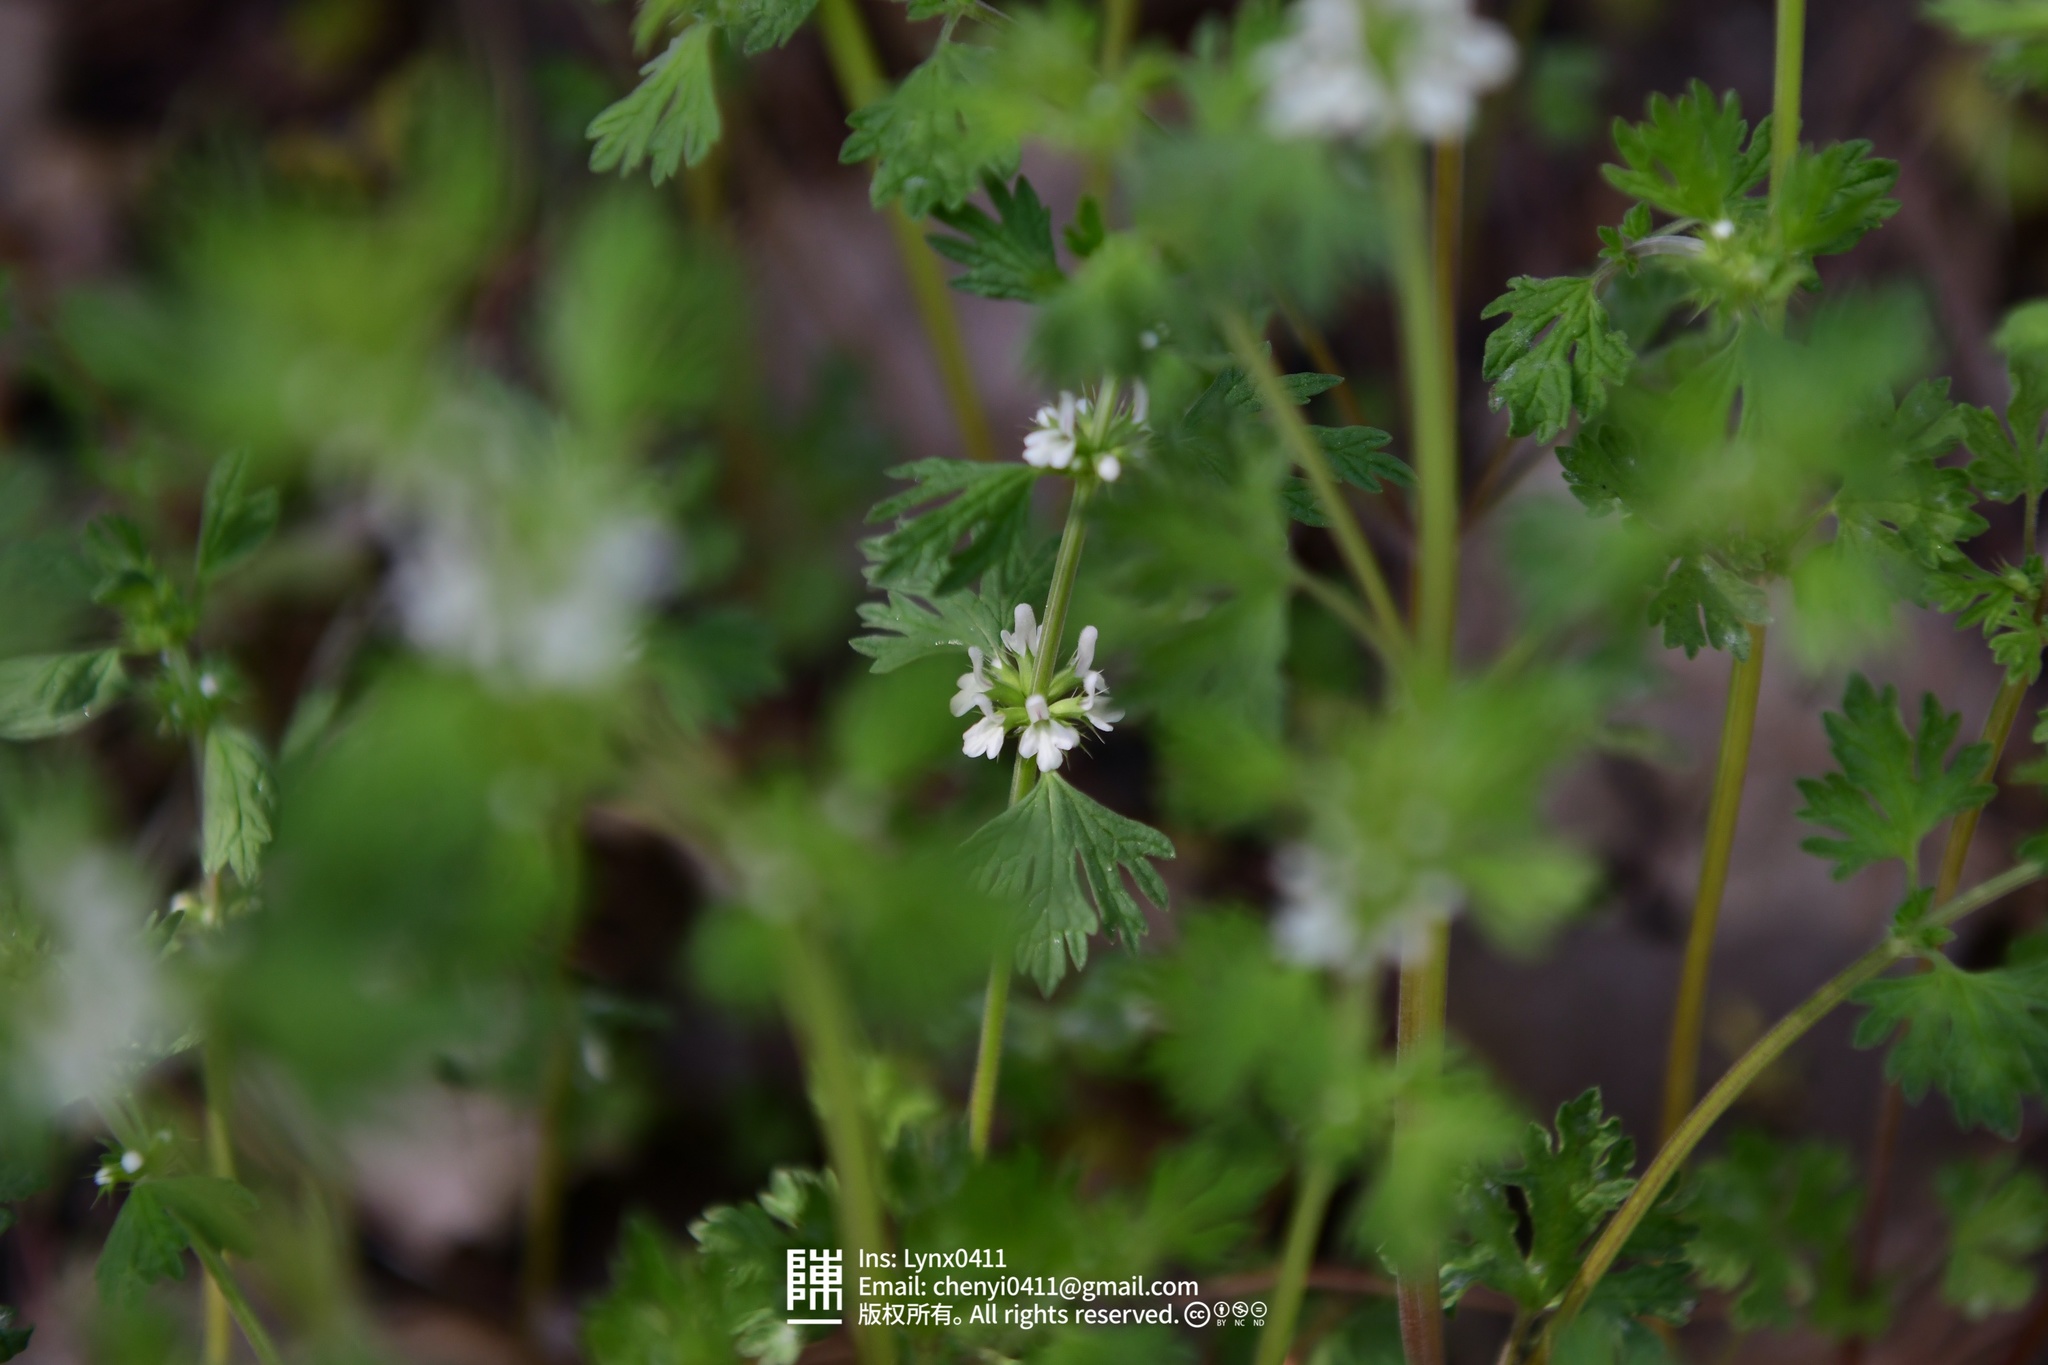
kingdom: Plantae
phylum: Tracheophyta
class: Magnoliopsida
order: Lamiales
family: Lamiaceae
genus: Lagopsis
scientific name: Lagopsis supina
